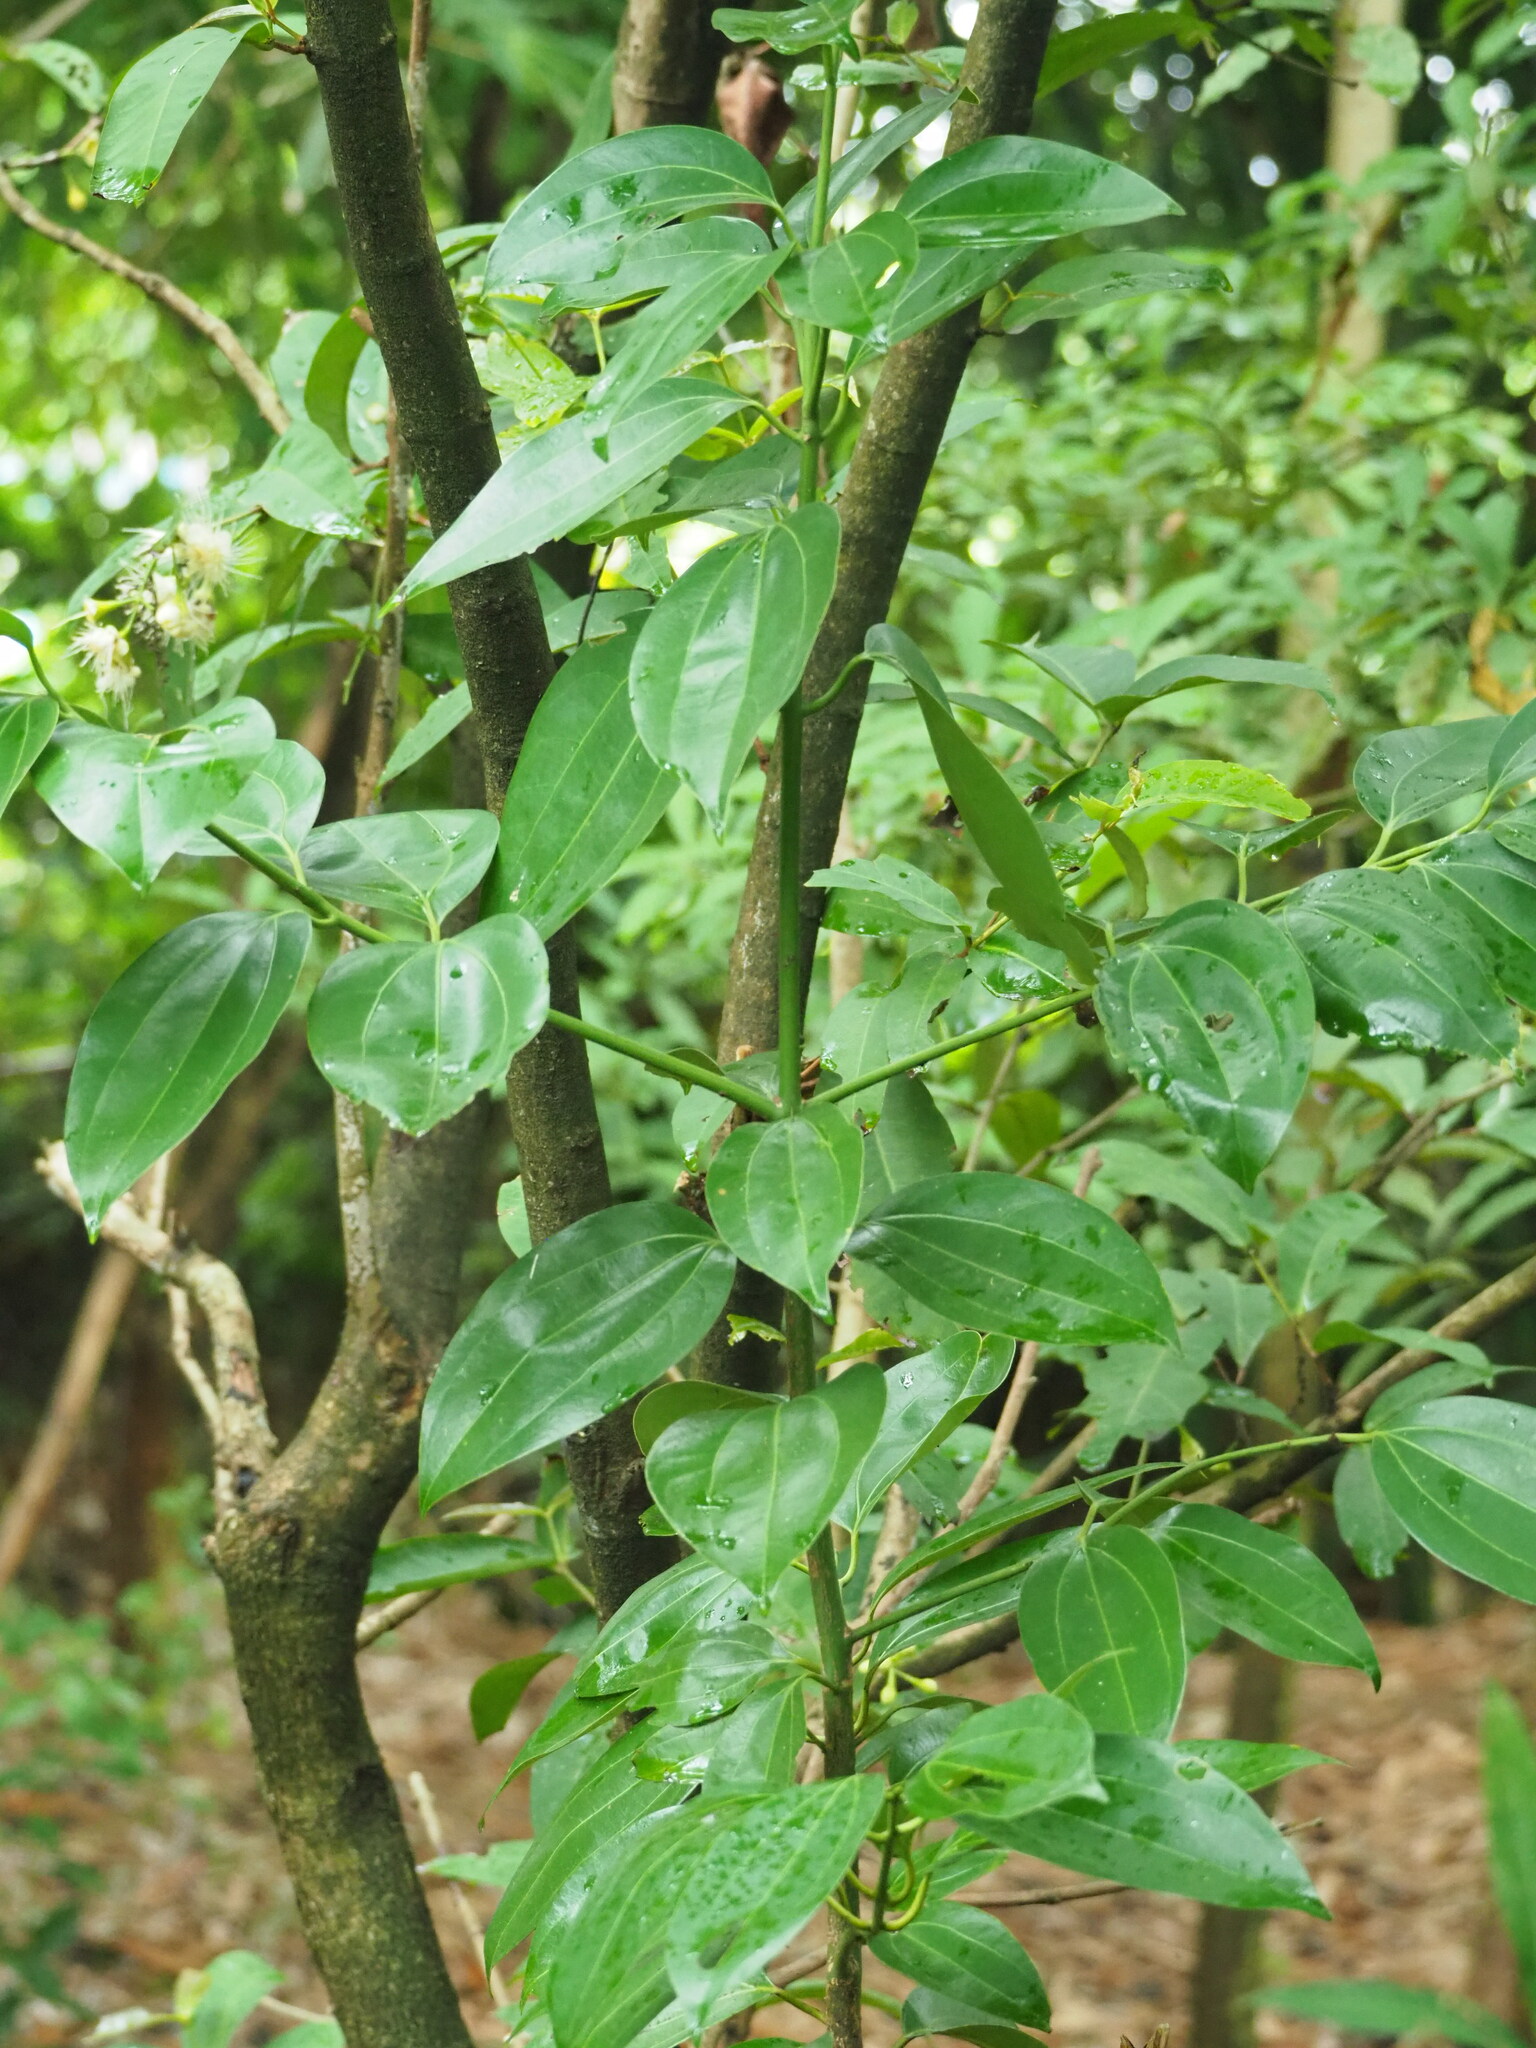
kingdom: Plantae
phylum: Tracheophyta
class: Magnoliopsida
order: Laurales
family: Lauraceae
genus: Cinnamomum
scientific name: Cinnamomum osmophloeum
